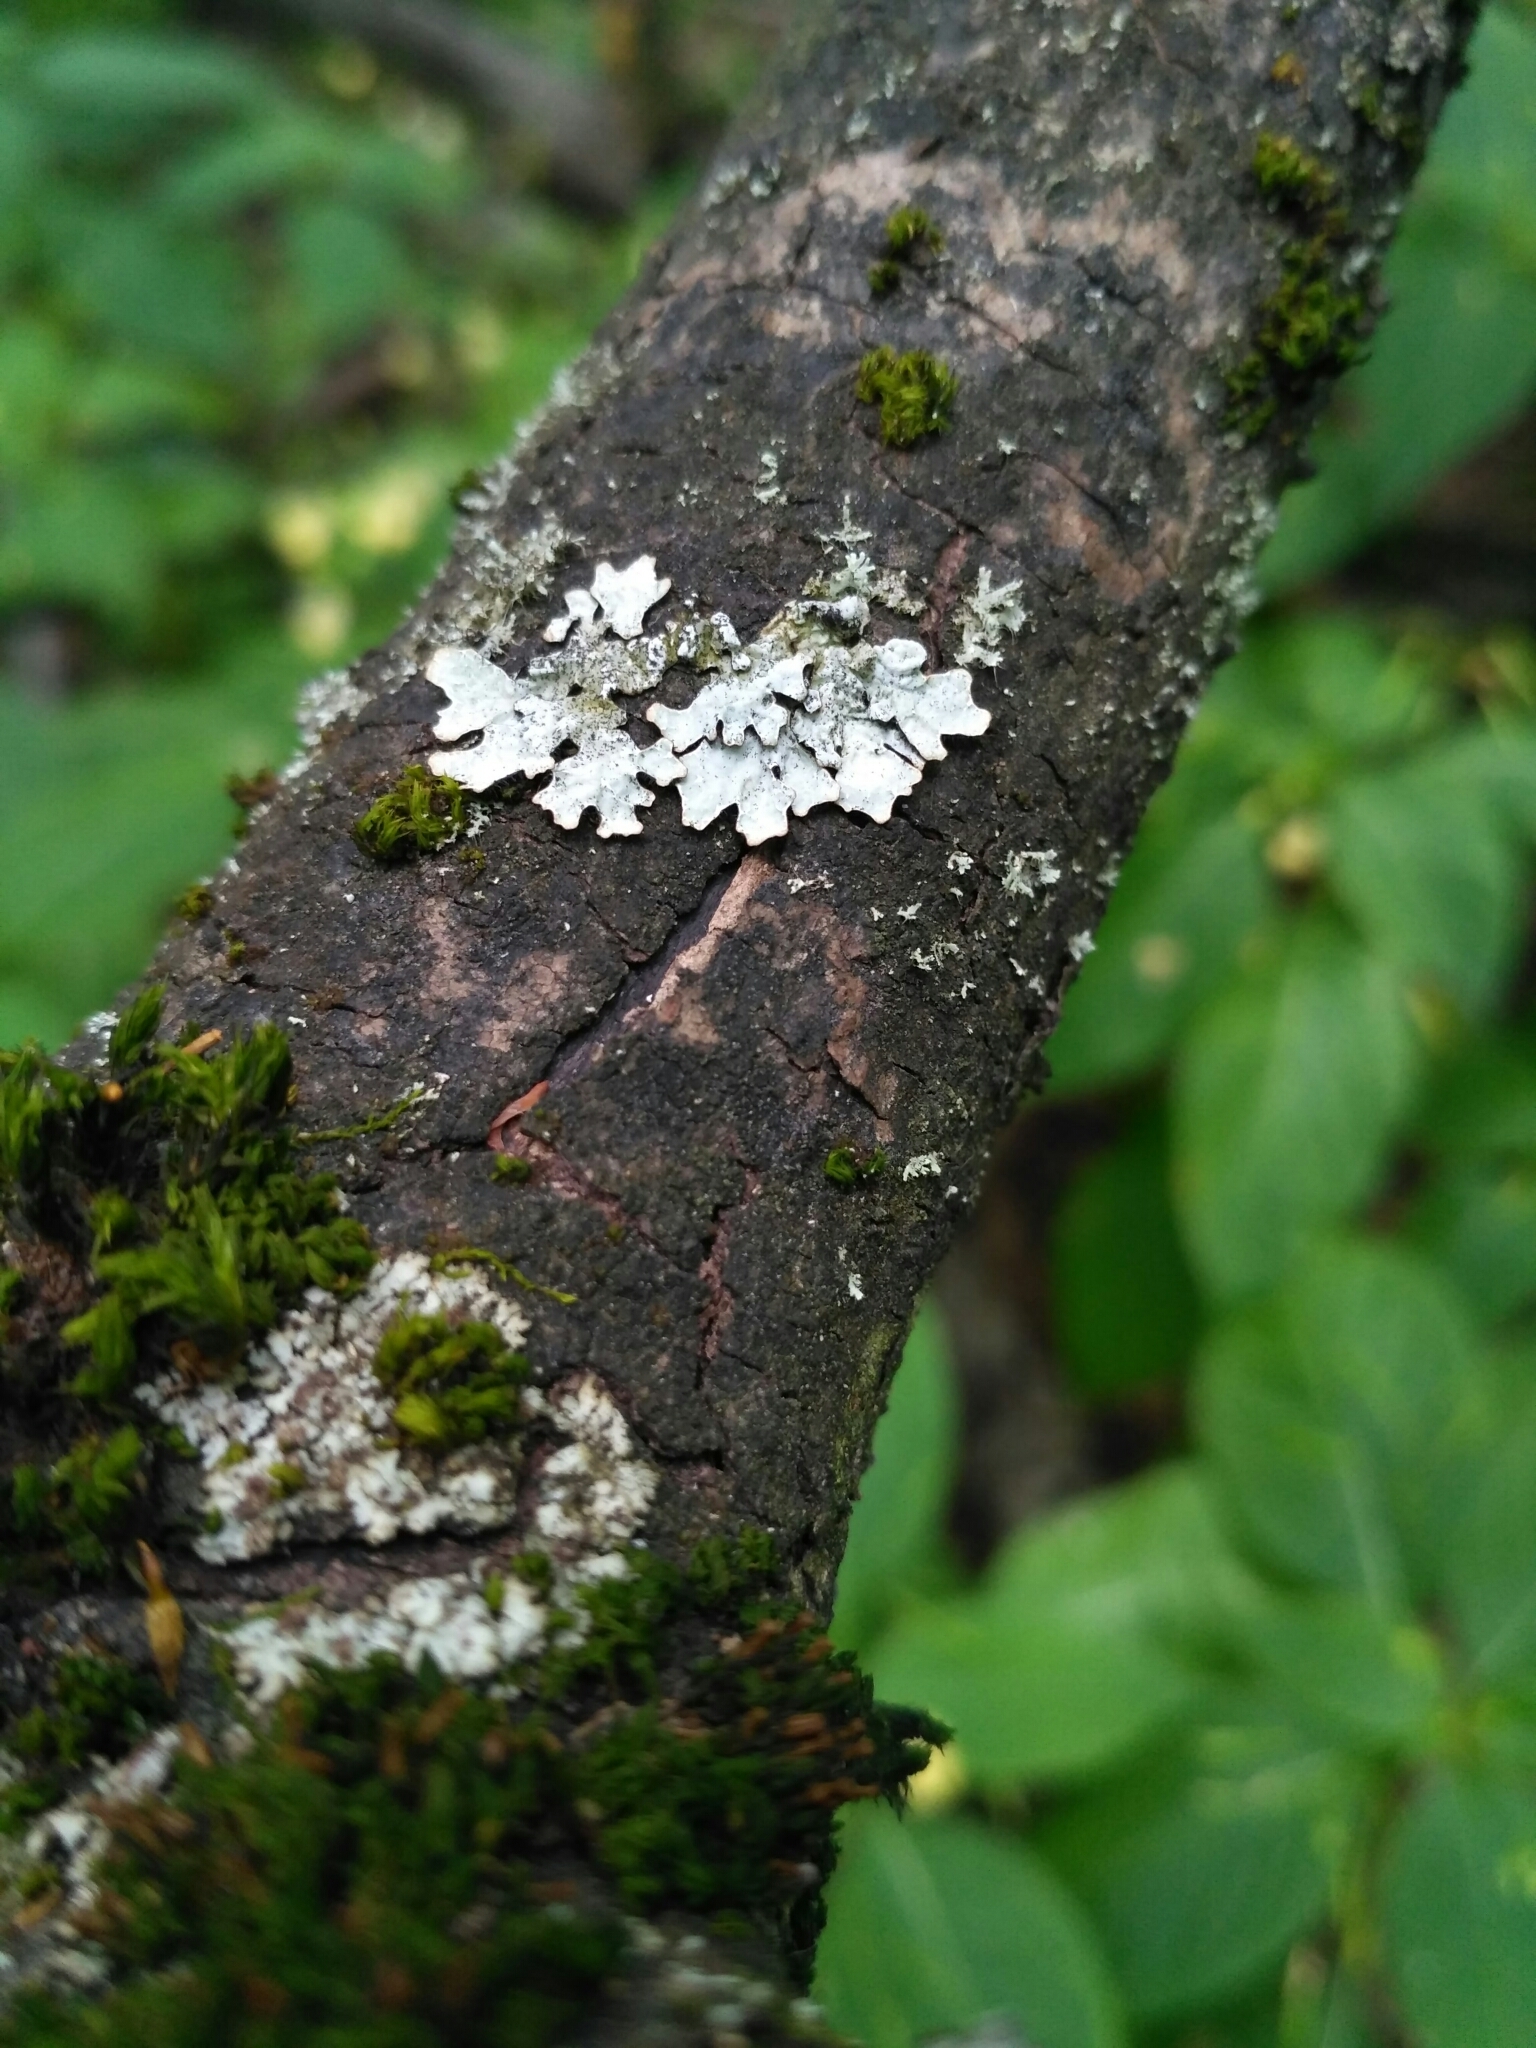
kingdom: Fungi
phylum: Ascomycota
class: Lecanoromycetes
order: Lecanorales
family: Parmeliaceae
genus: Parmelina
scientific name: Parmelina tiliacea
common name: Linden shield lichen
